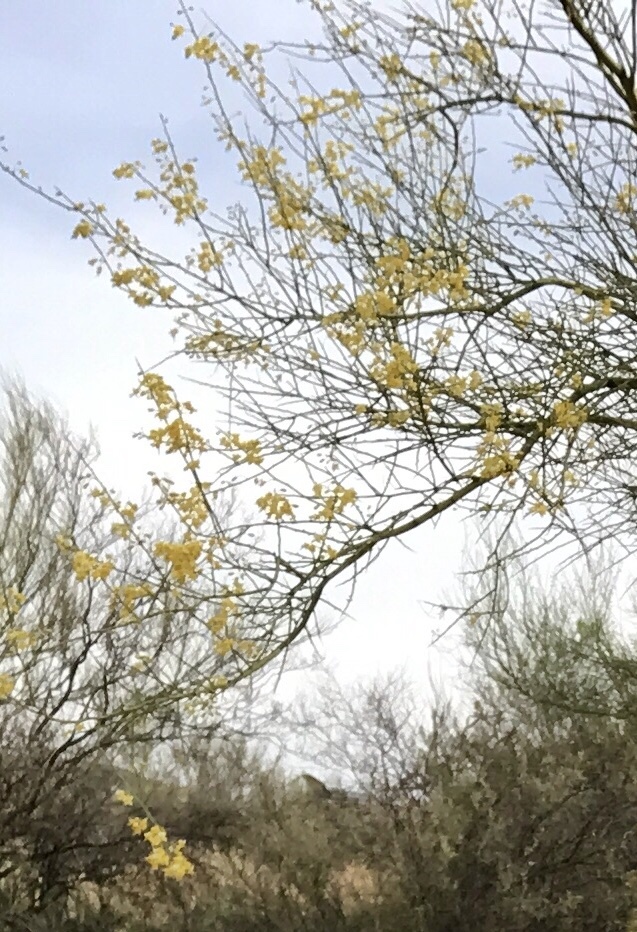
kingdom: Plantae
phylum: Tracheophyta
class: Magnoliopsida
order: Fabales
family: Fabaceae
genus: Parkinsonia
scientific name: Parkinsonia aculeata
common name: Jerusalem thorn
